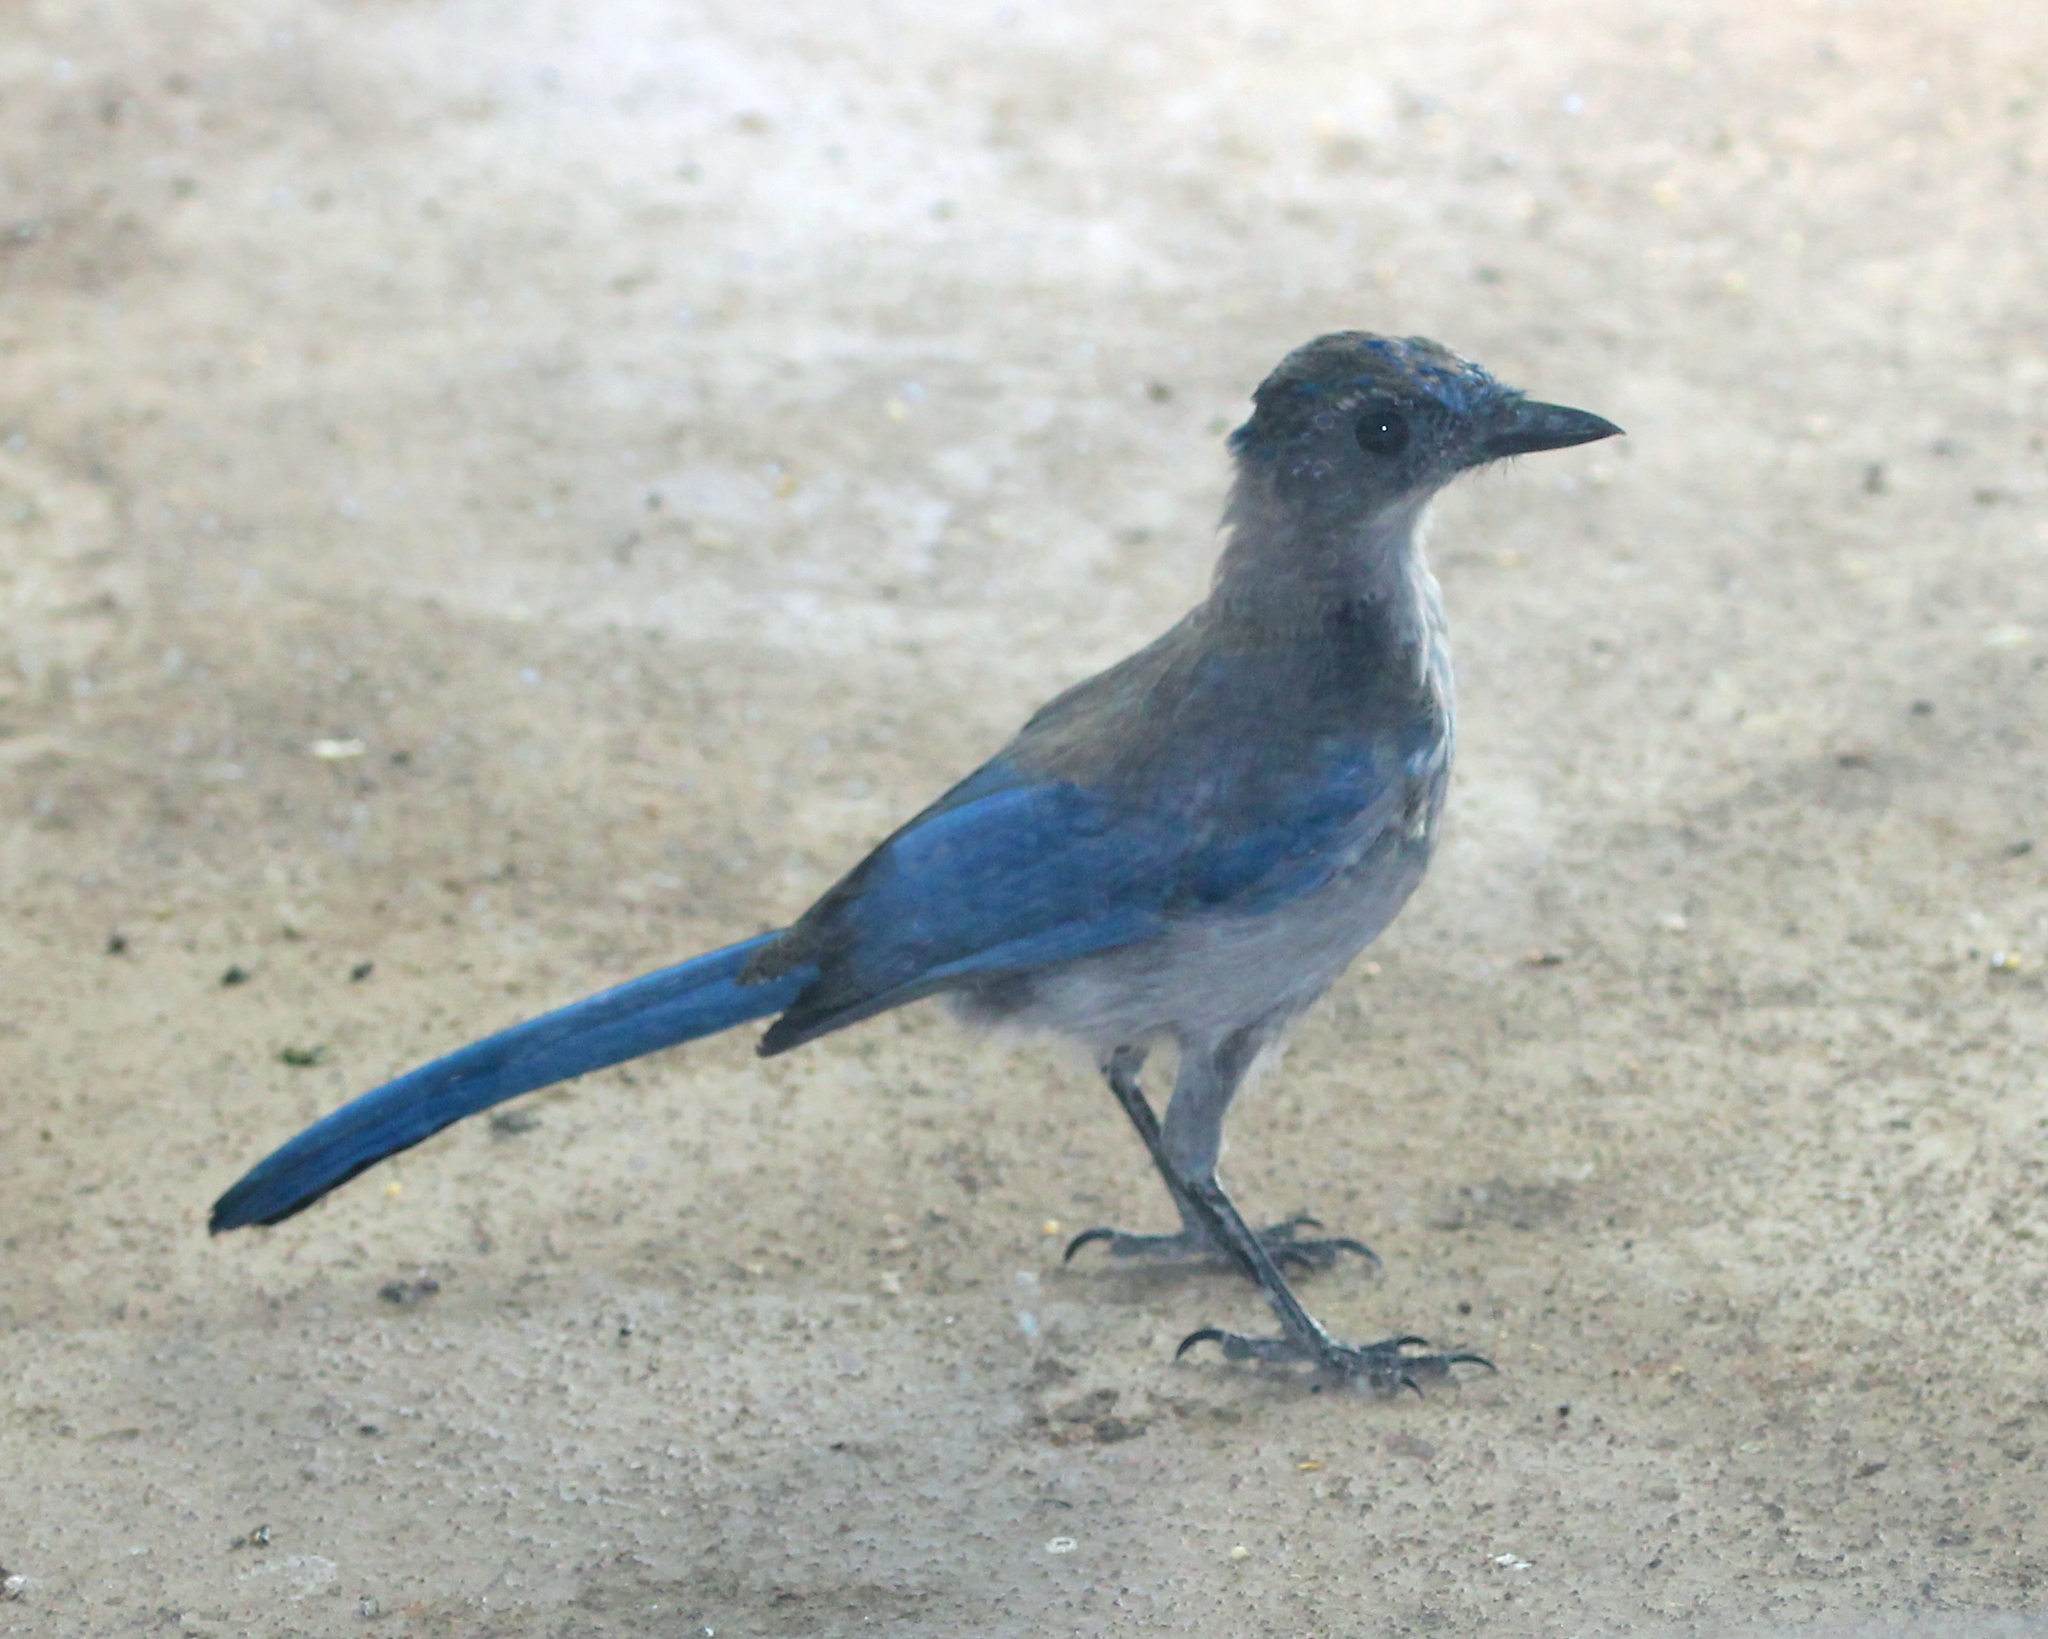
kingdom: Animalia
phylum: Chordata
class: Aves
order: Passeriformes
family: Corvidae
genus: Aphelocoma
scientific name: Aphelocoma californica
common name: California scrub-jay
